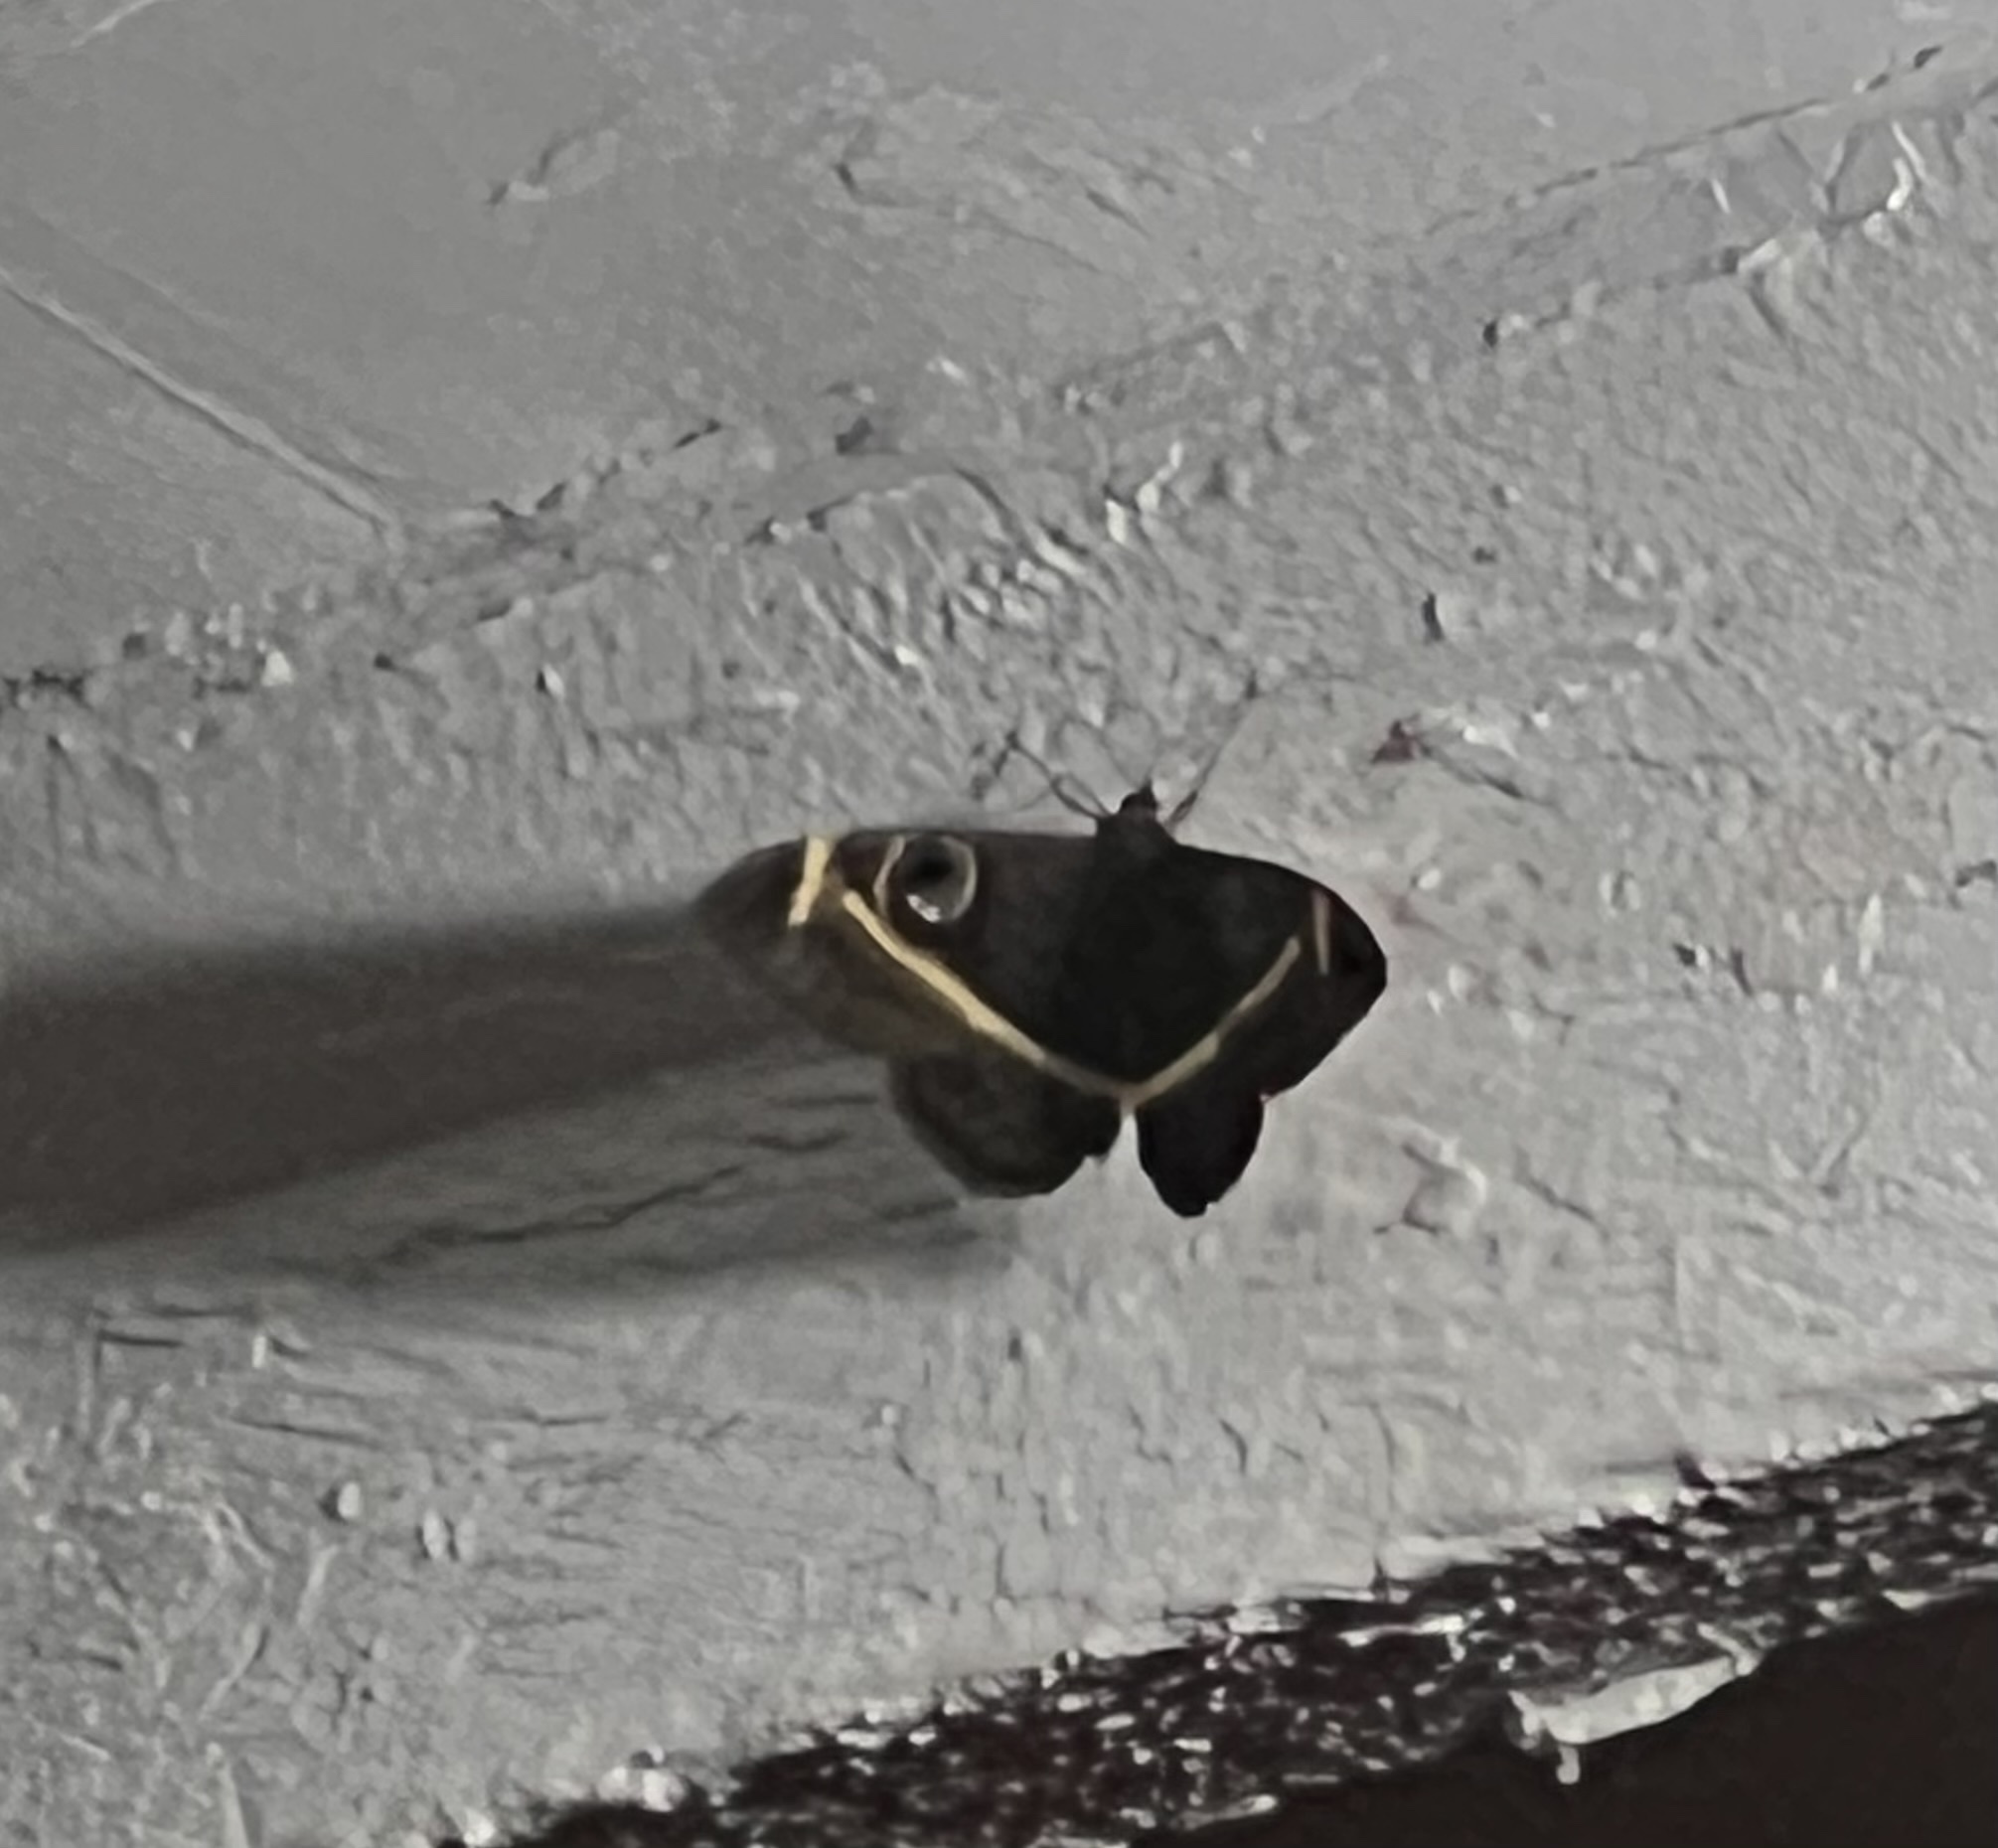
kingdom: Animalia
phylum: Arthropoda
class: Insecta
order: Lepidoptera
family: Erebidae
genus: Cyligramma
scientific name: Cyligramma latona
